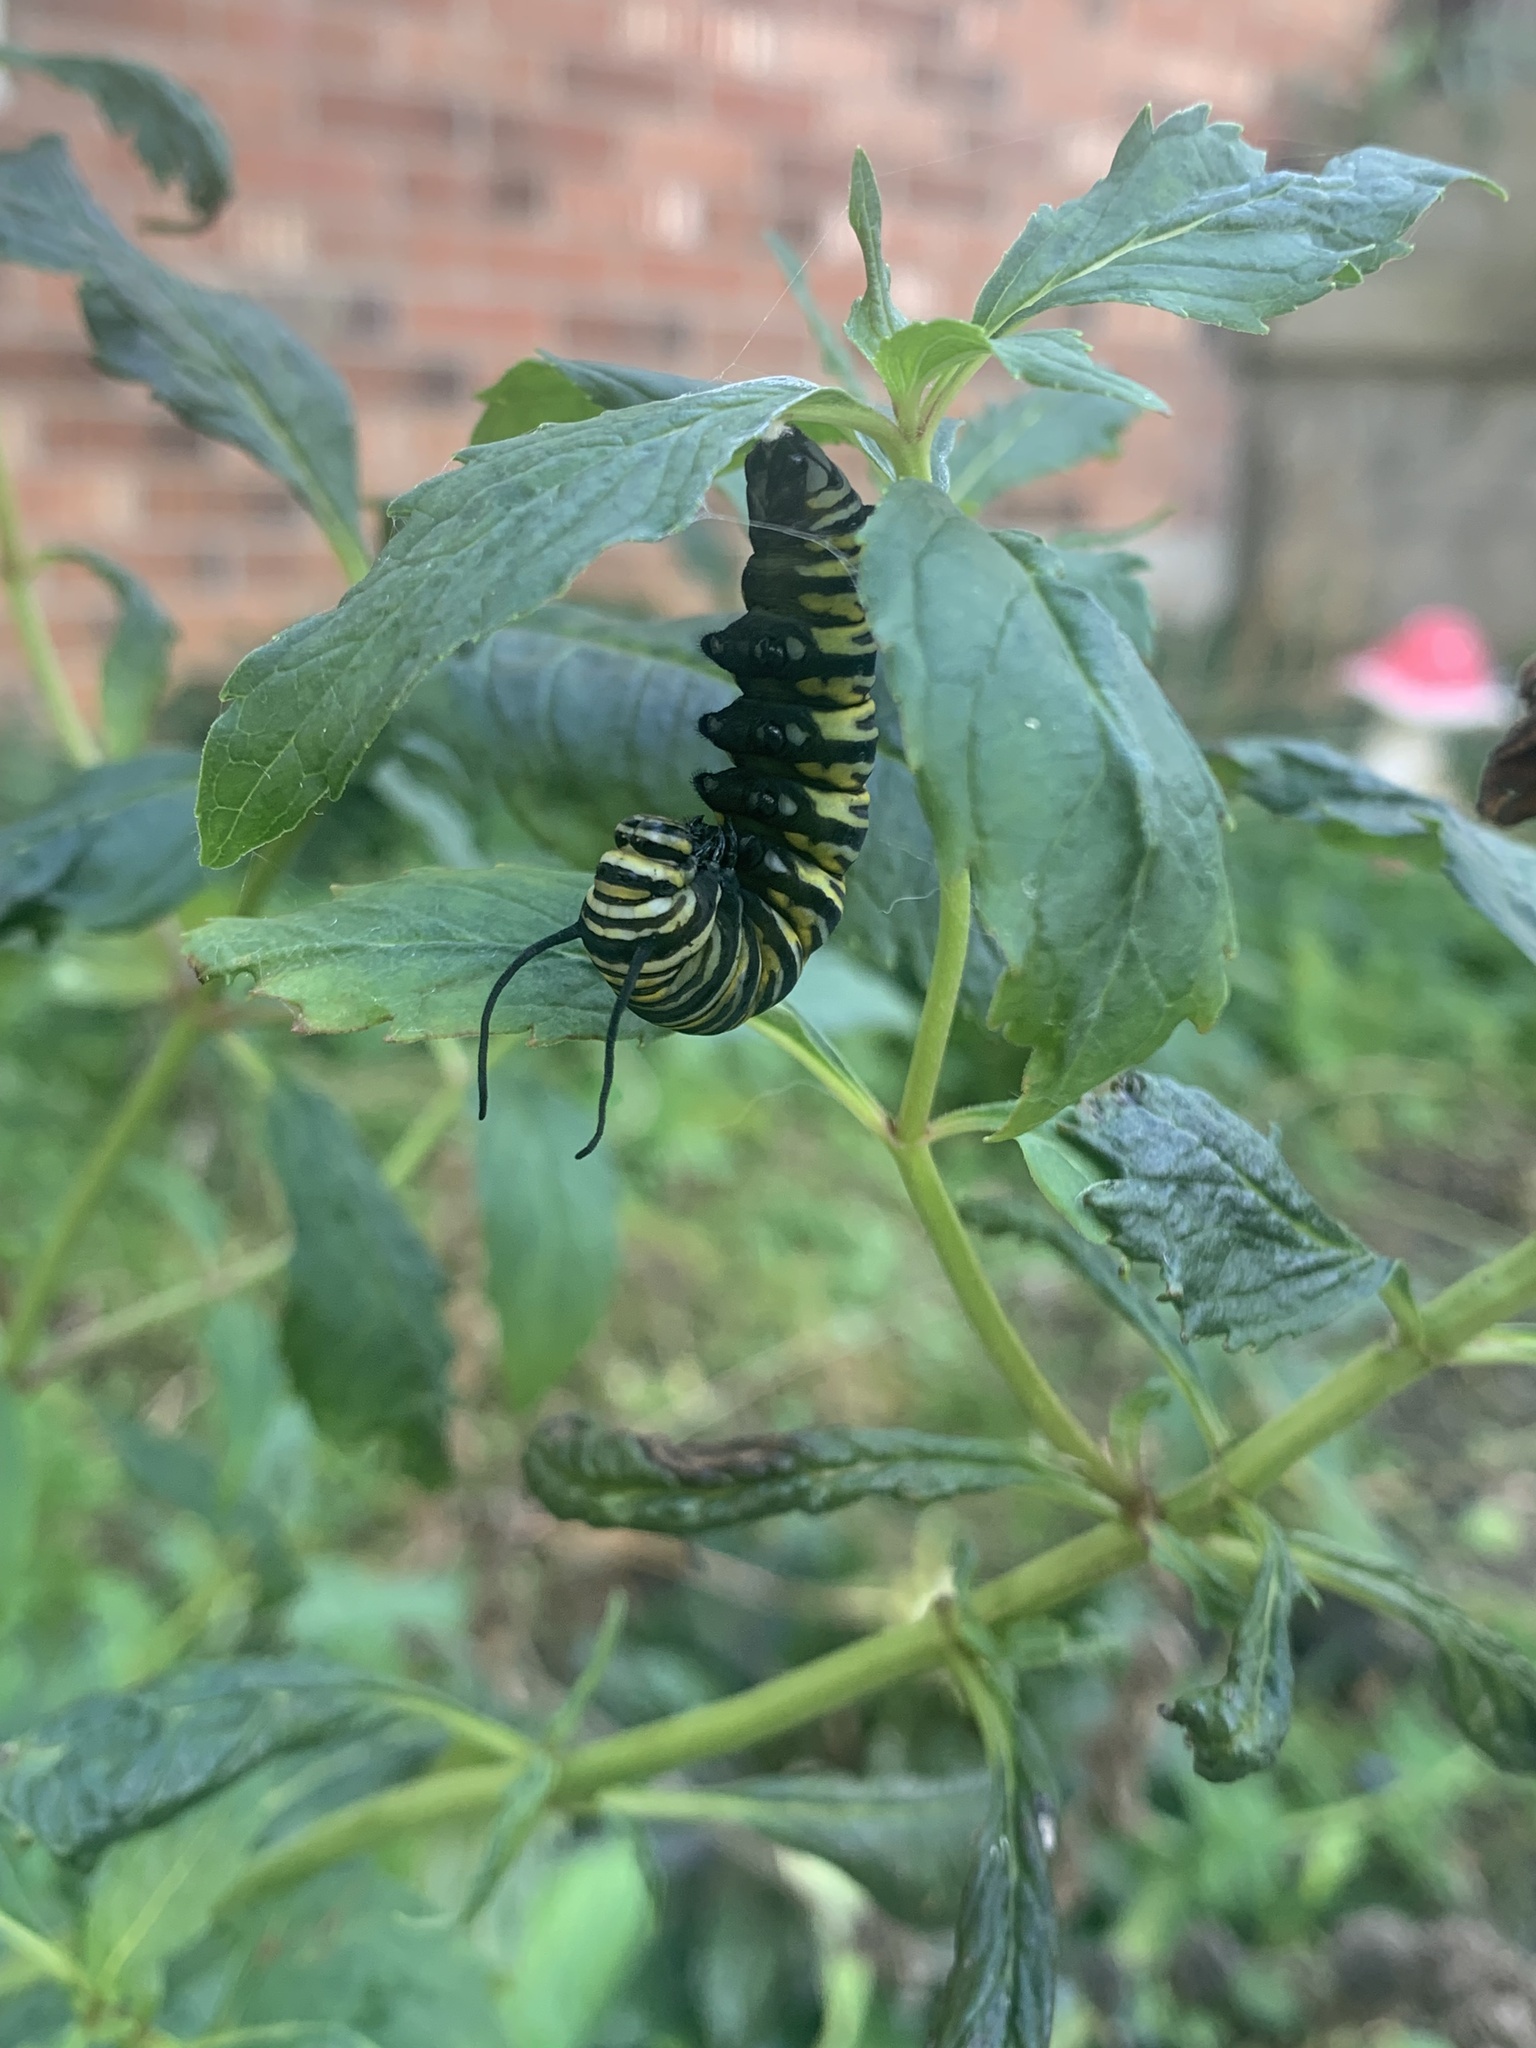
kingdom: Animalia
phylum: Arthropoda
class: Insecta
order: Lepidoptera
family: Nymphalidae
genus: Danaus
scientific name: Danaus plexippus
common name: Monarch
